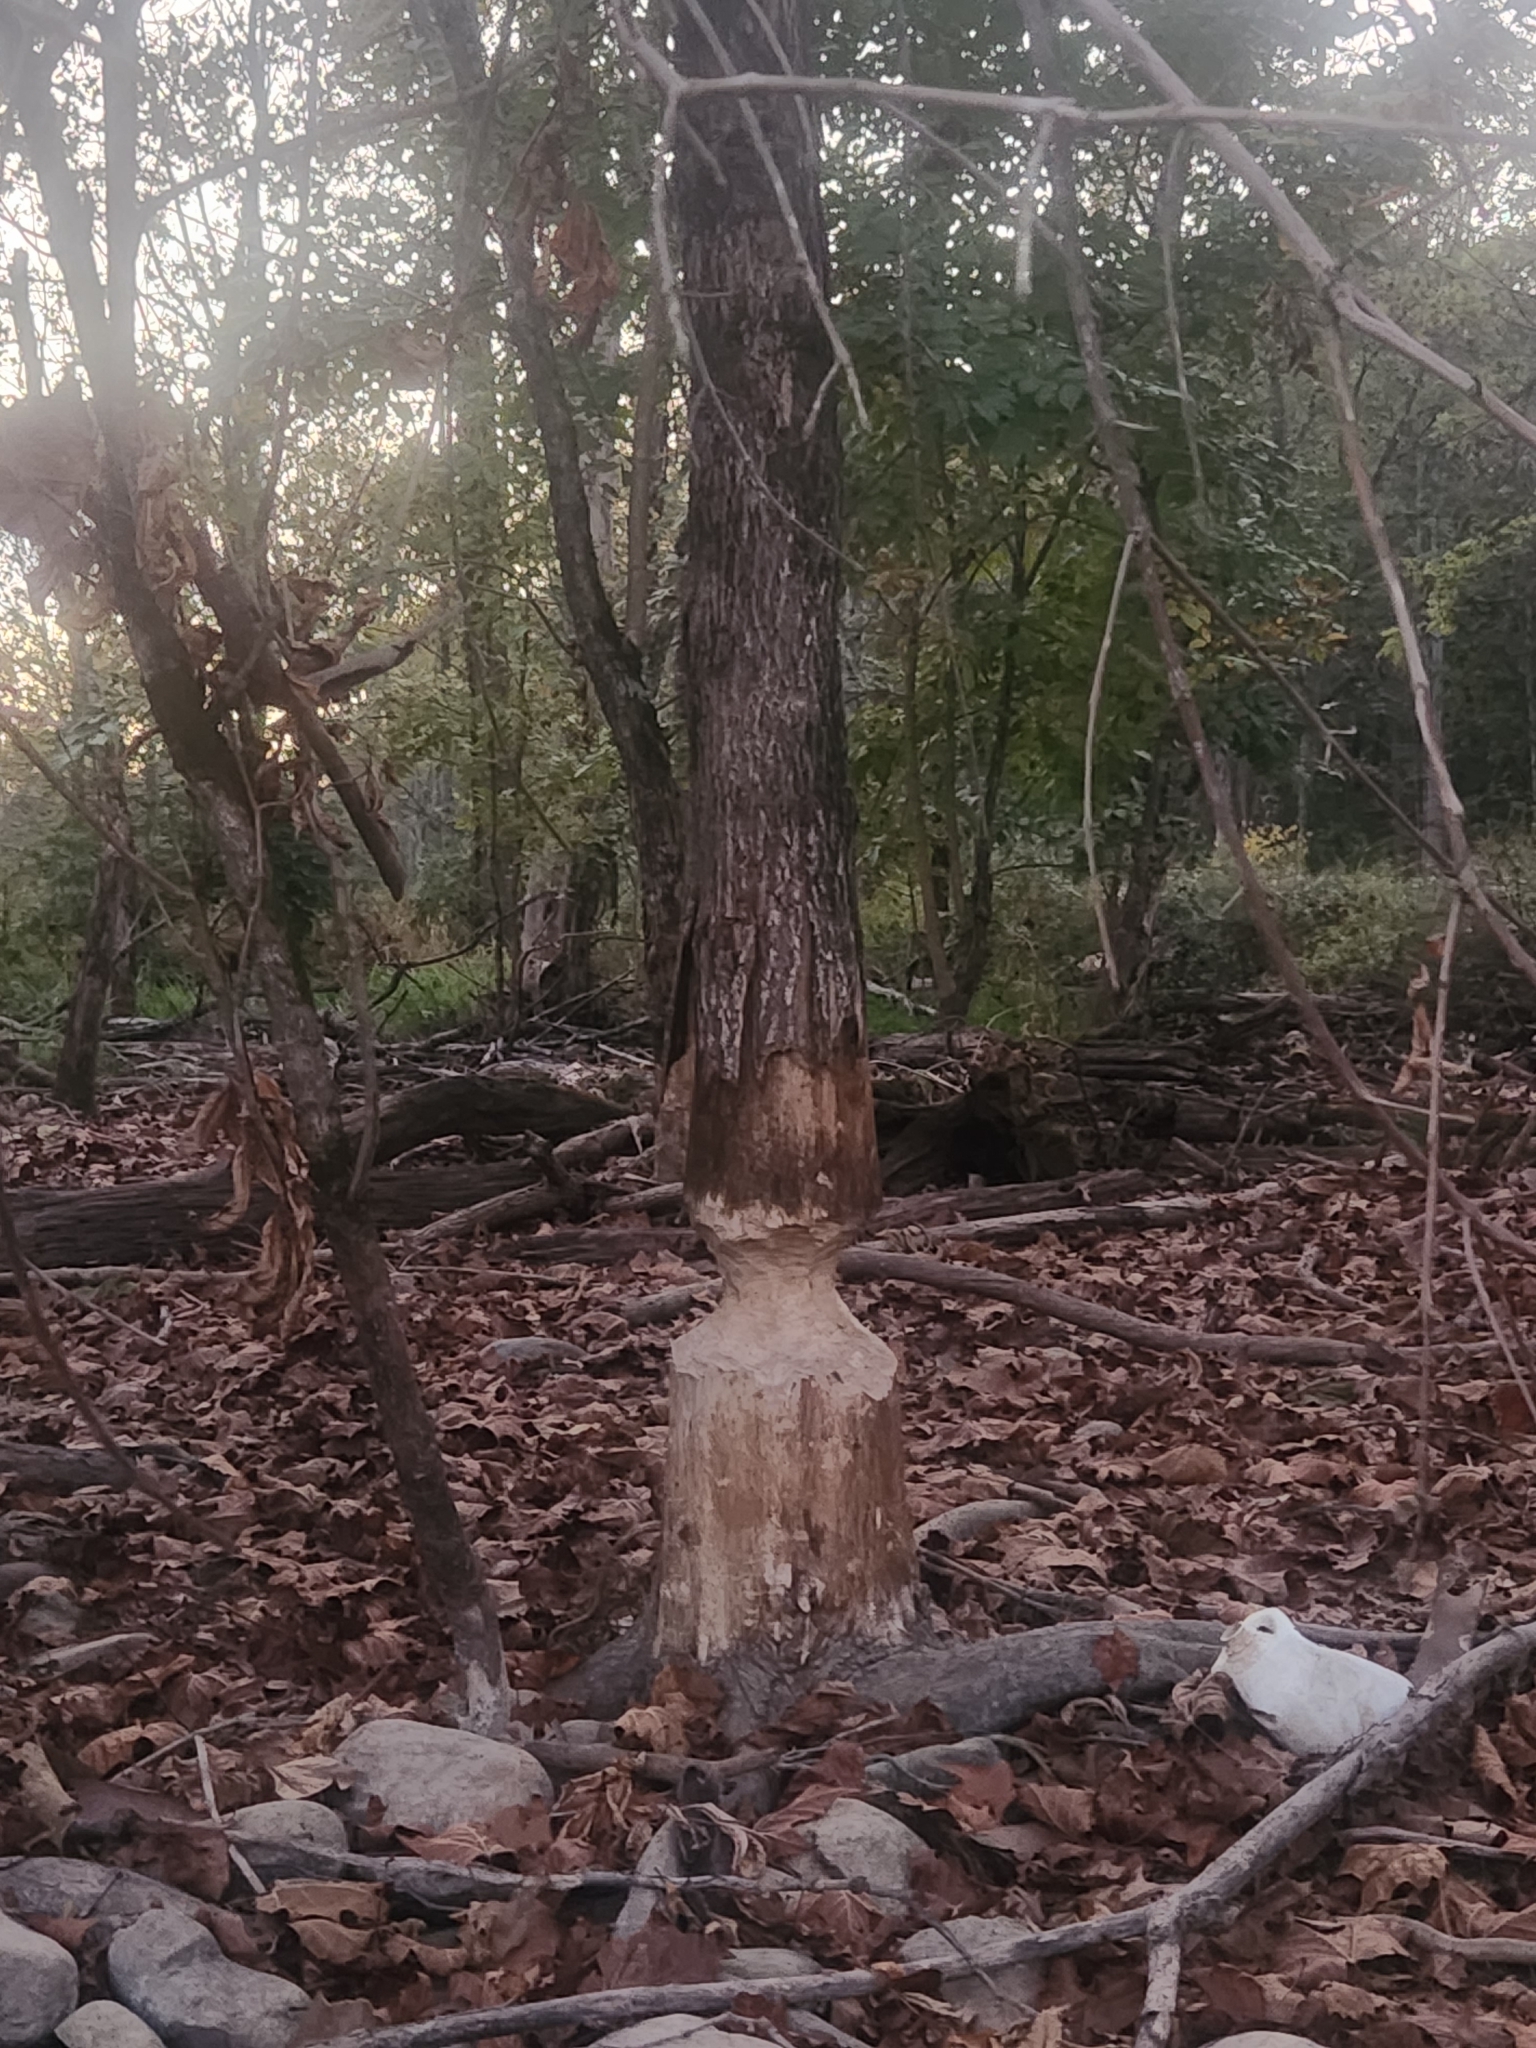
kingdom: Animalia
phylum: Chordata
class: Mammalia
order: Rodentia
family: Castoridae
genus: Castor
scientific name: Castor canadensis
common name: American beaver
